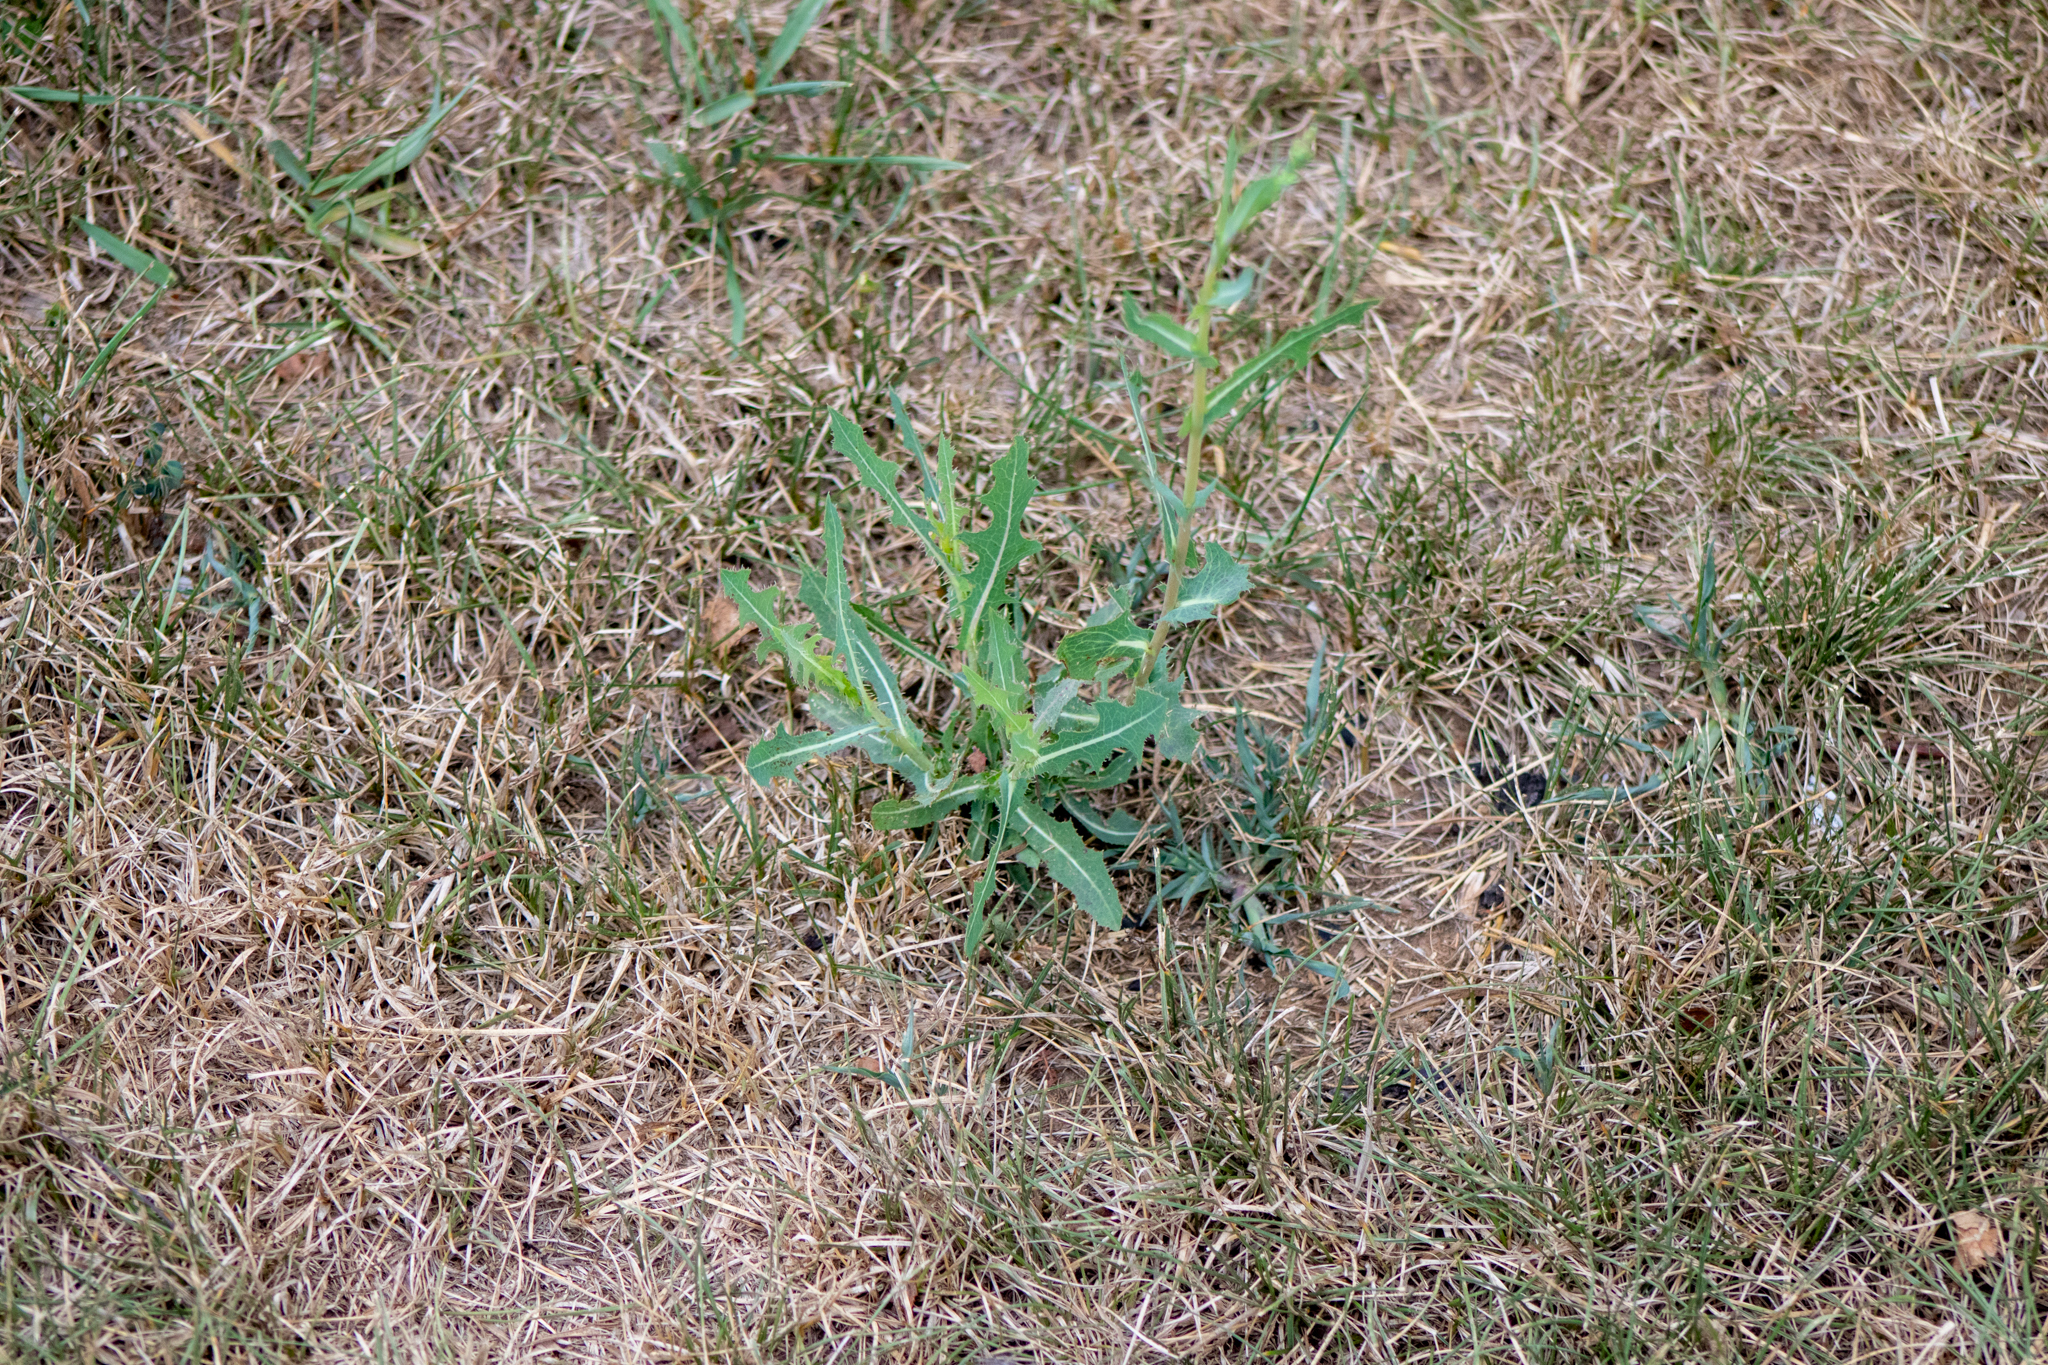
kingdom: Plantae
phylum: Tracheophyta
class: Magnoliopsida
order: Asterales
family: Asteraceae
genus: Lactuca
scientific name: Lactuca serriola
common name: Prickly lettuce
